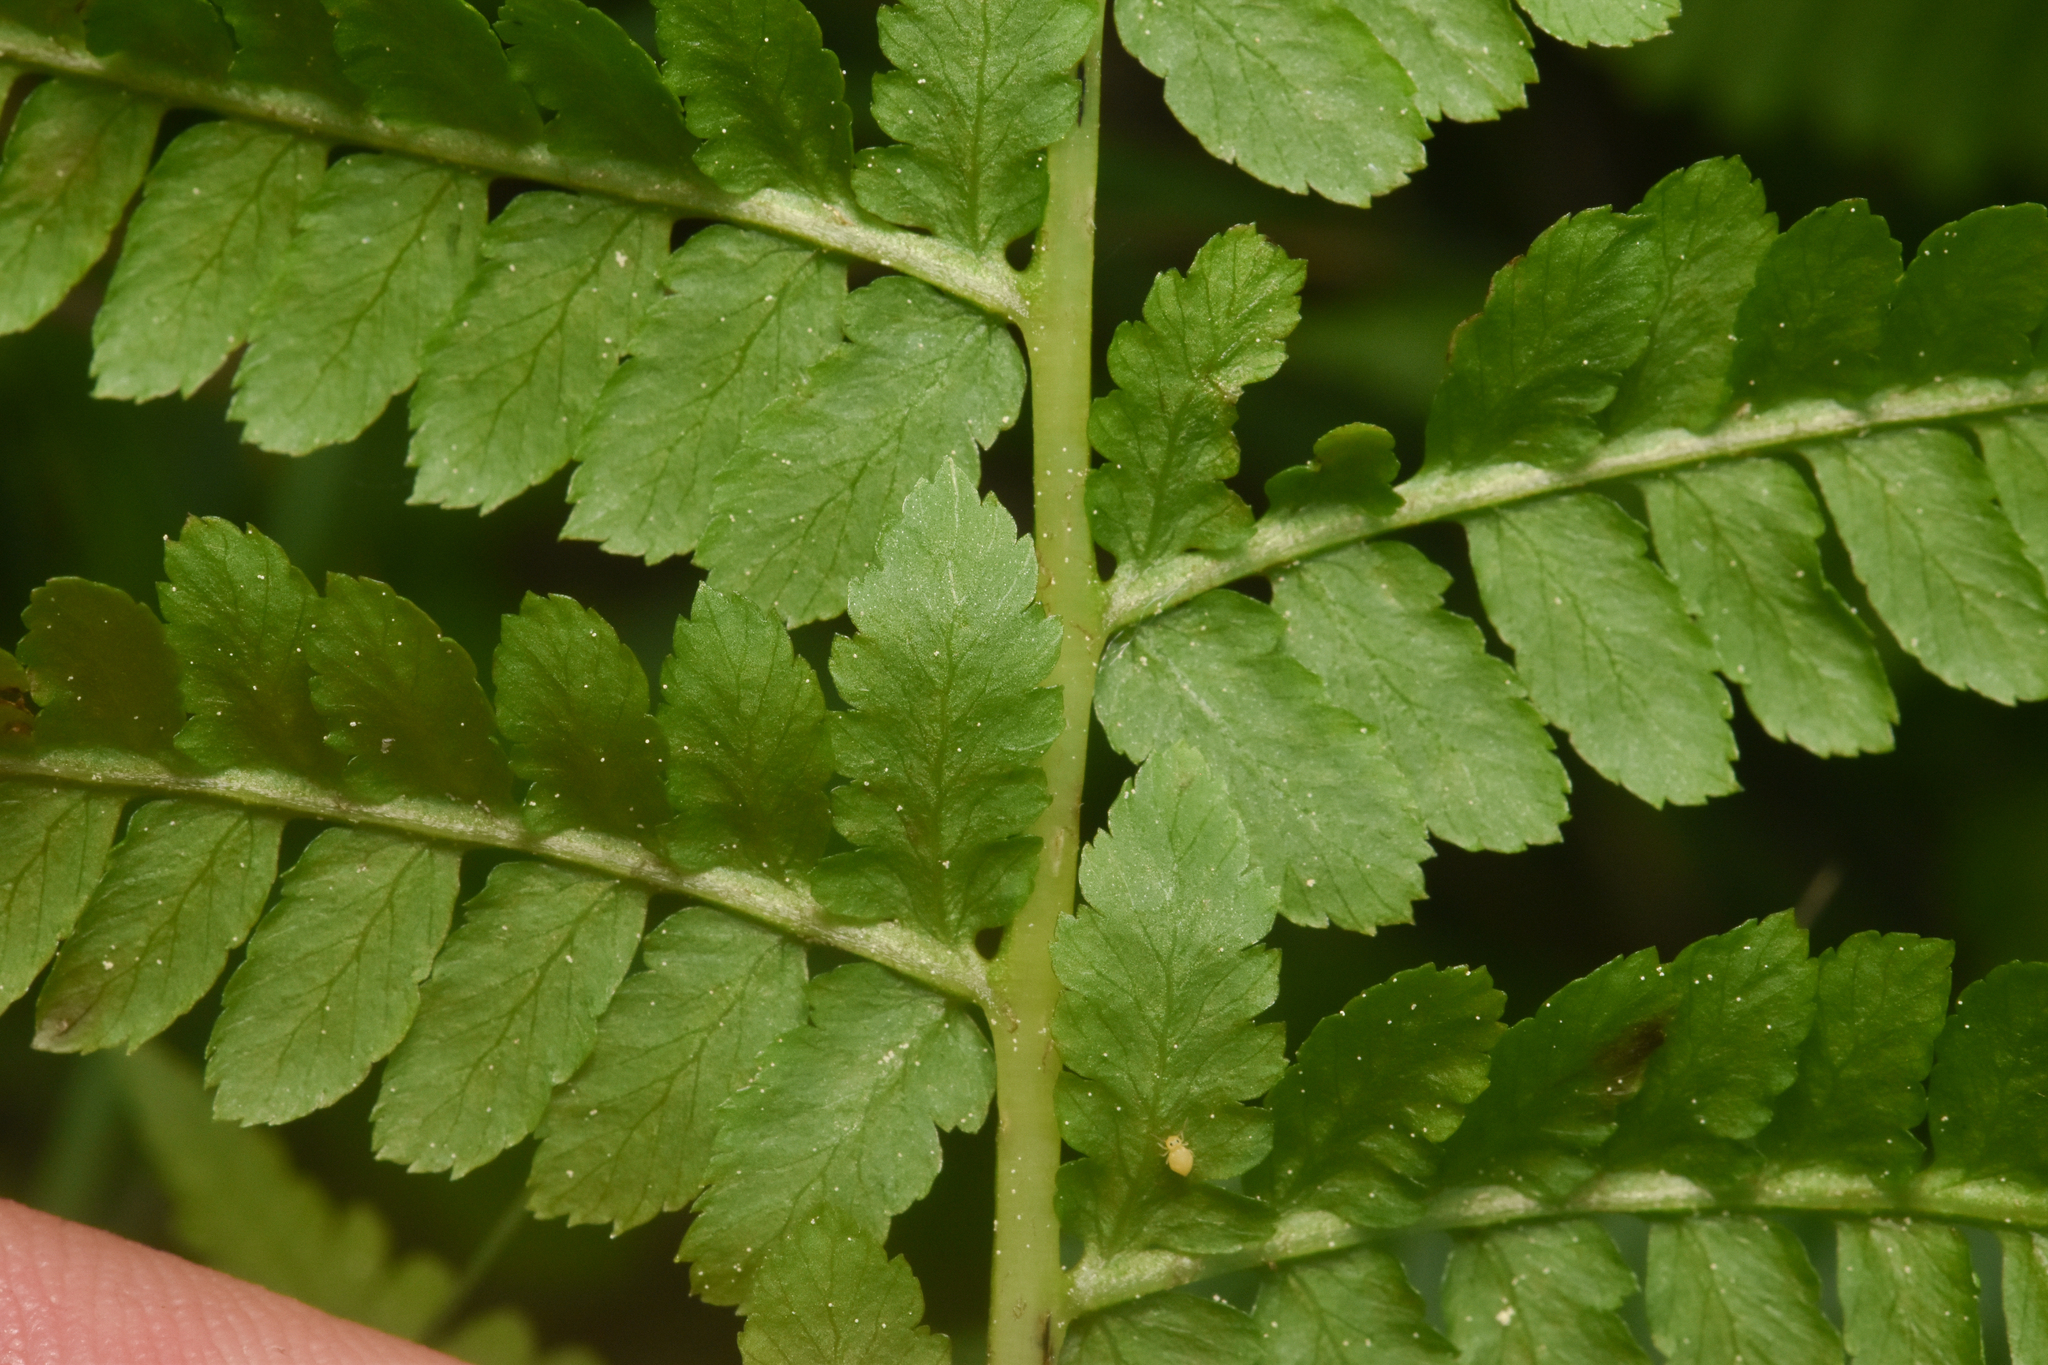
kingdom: Plantae
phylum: Tracheophyta
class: Polypodiopsida
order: Polypodiales
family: Athyriaceae
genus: Athyrium
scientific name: Athyrium filix-femina
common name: Lady fern
